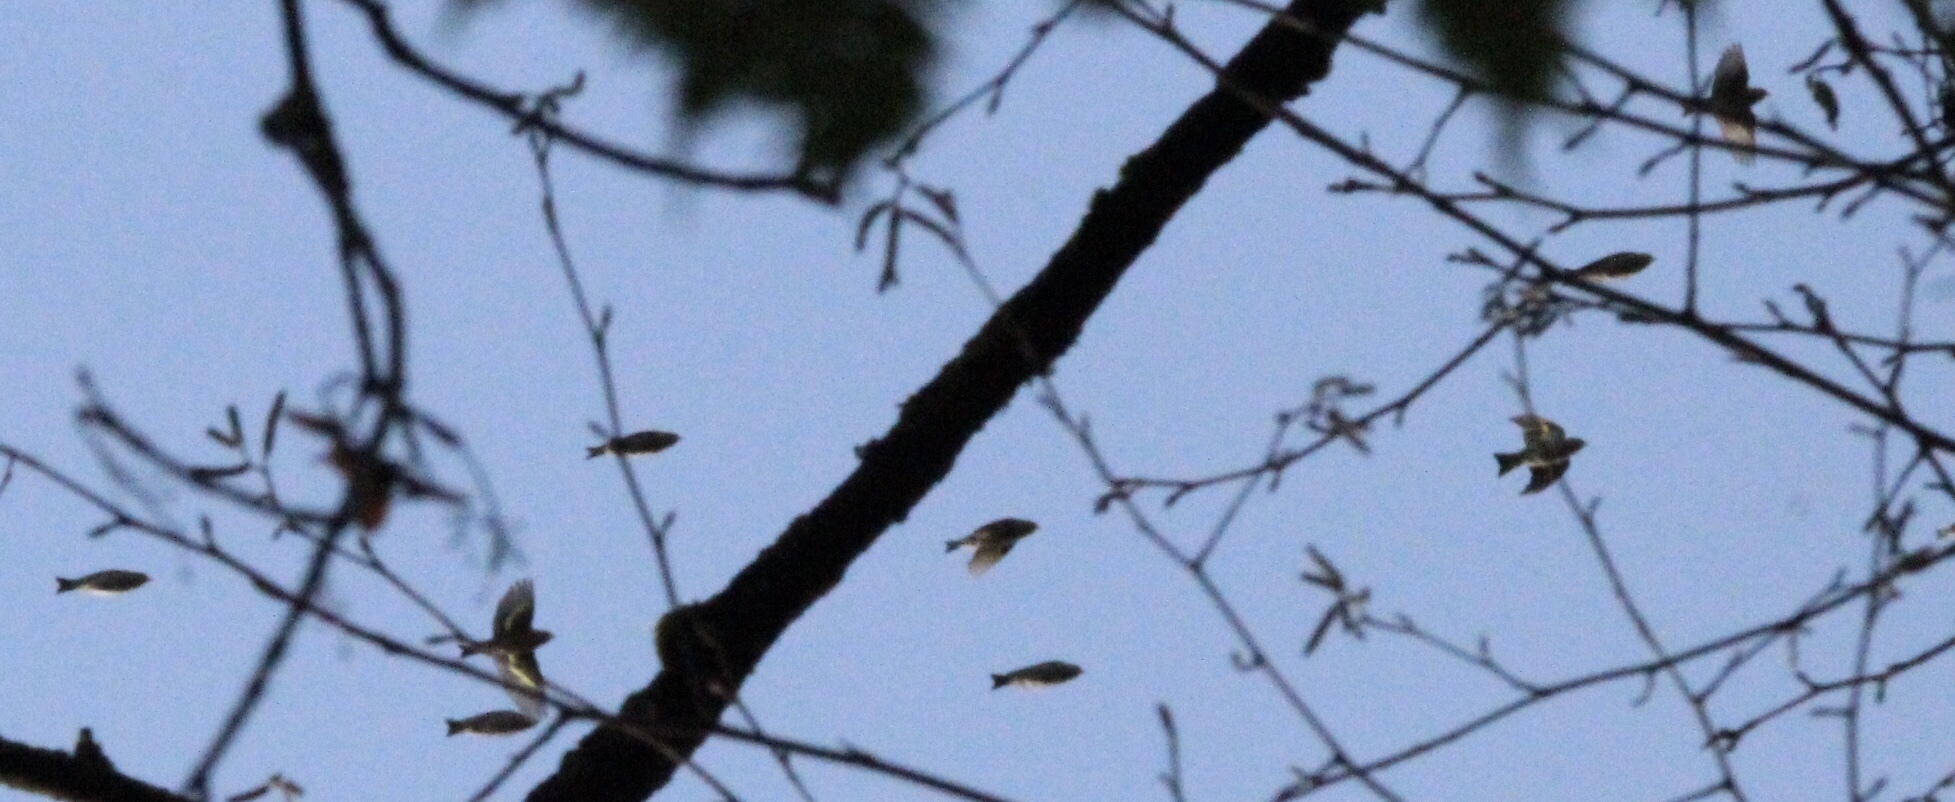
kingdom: Animalia
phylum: Chordata
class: Aves
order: Passeriformes
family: Fringillidae
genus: Spinus
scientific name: Spinus pinus
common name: Pine siskin
